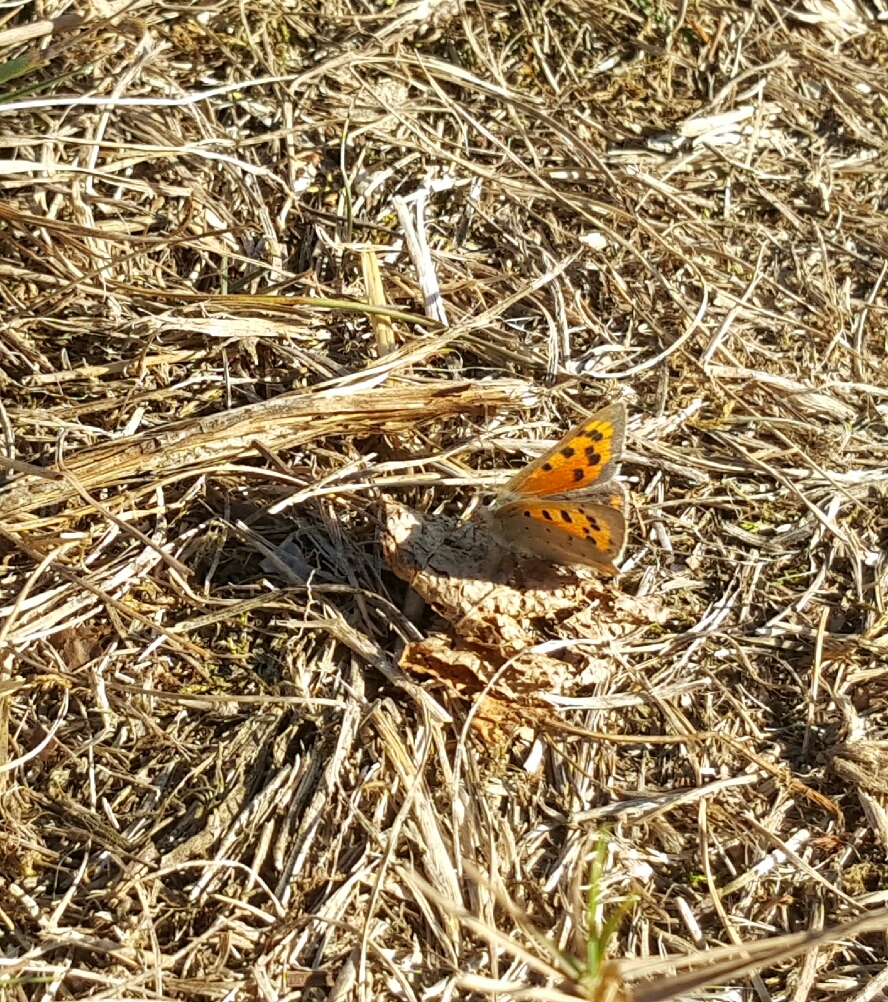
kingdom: Animalia
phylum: Arthropoda
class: Insecta
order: Lepidoptera
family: Lycaenidae
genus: Lycaena
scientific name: Lycaena phlaeas
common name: Small copper
